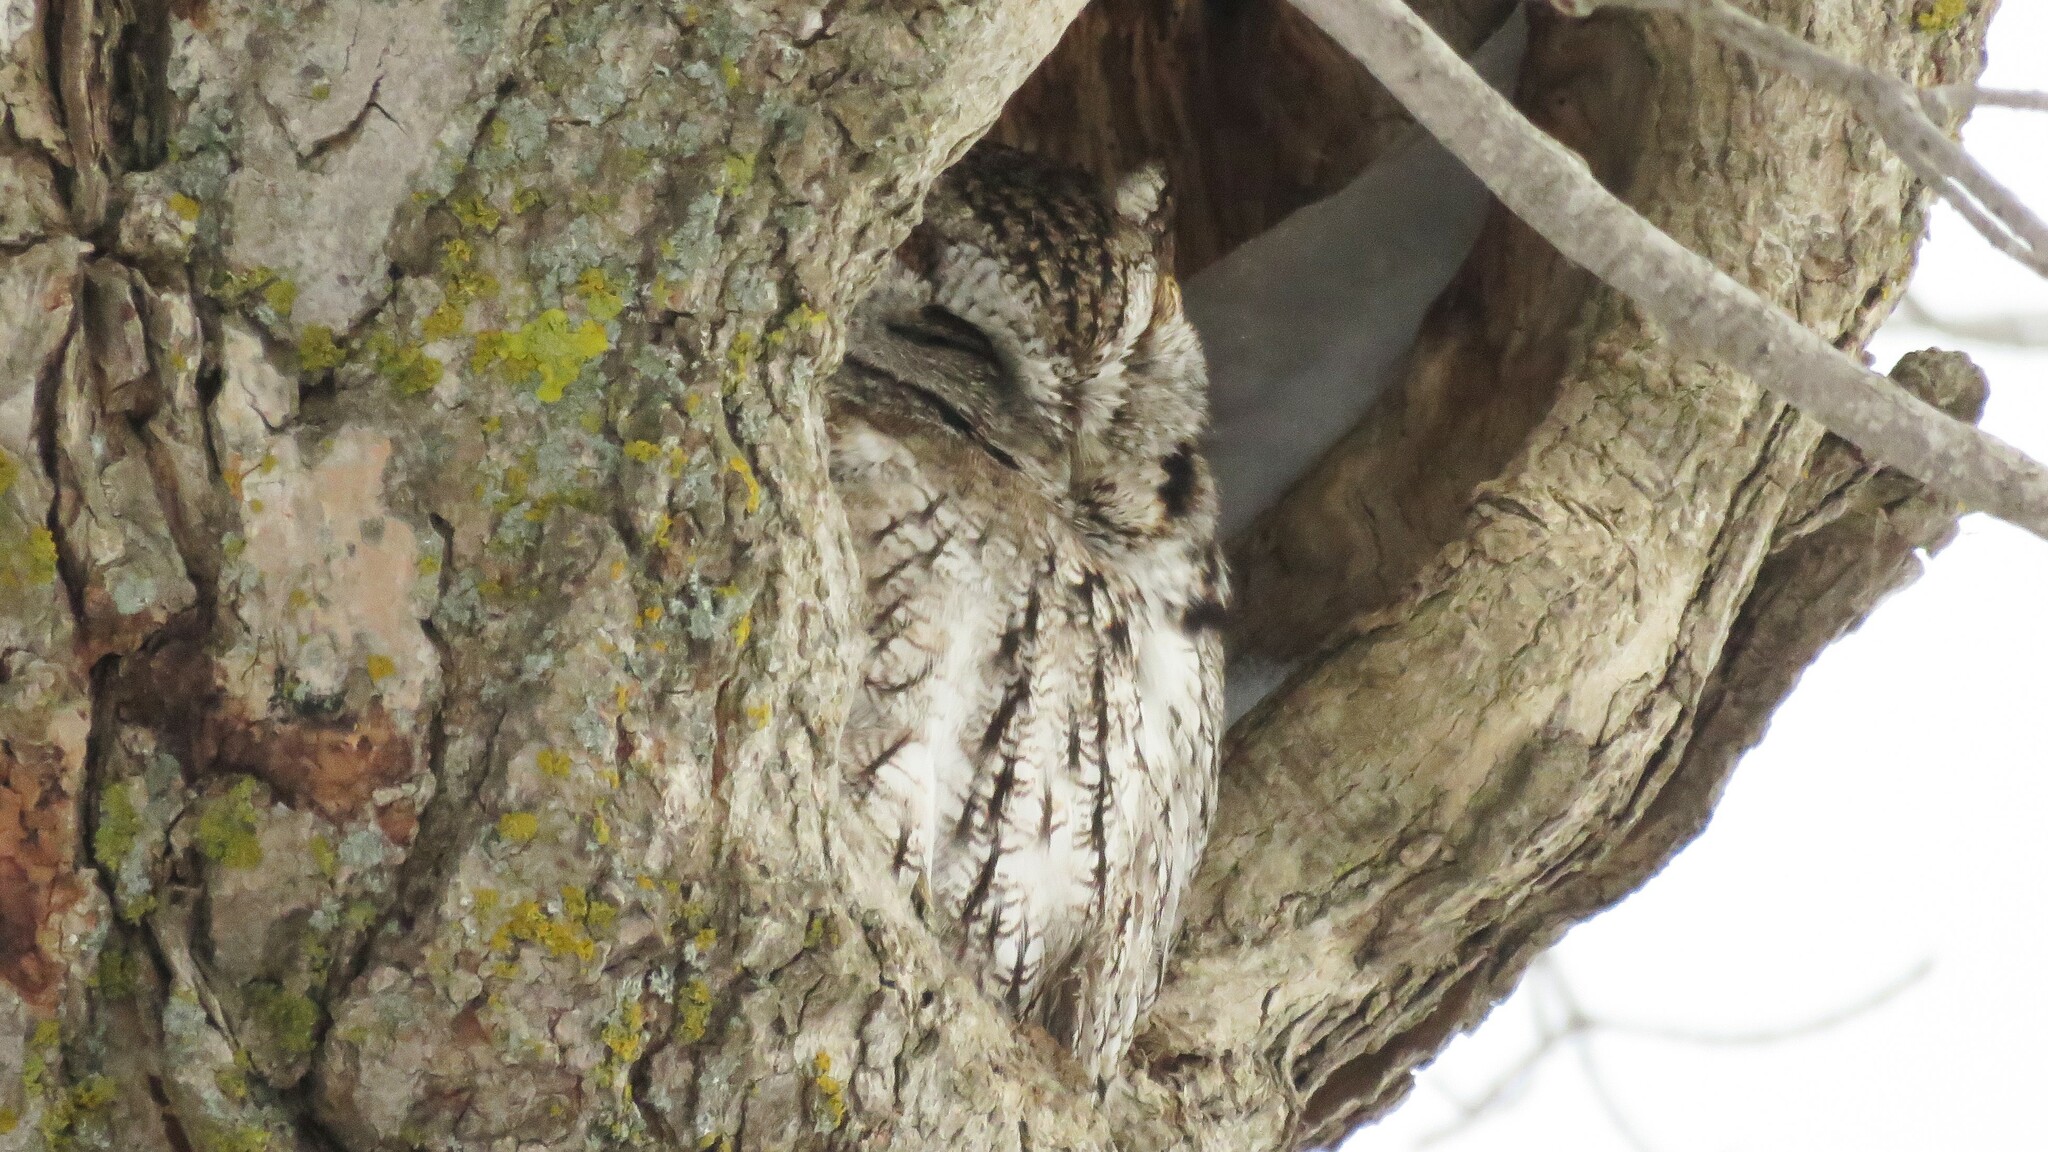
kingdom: Animalia
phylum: Chordata
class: Aves
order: Strigiformes
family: Strigidae
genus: Megascops
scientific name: Megascops asio
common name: Eastern screech-owl
